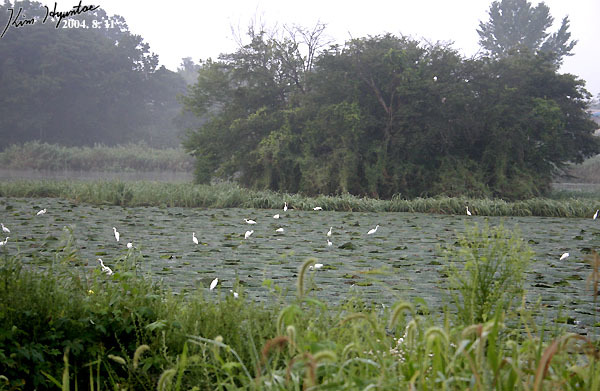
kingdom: Animalia
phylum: Chordata
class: Aves
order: Pelecaniformes
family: Ardeidae
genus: Egretta
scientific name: Egretta garzetta
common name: Little egret
